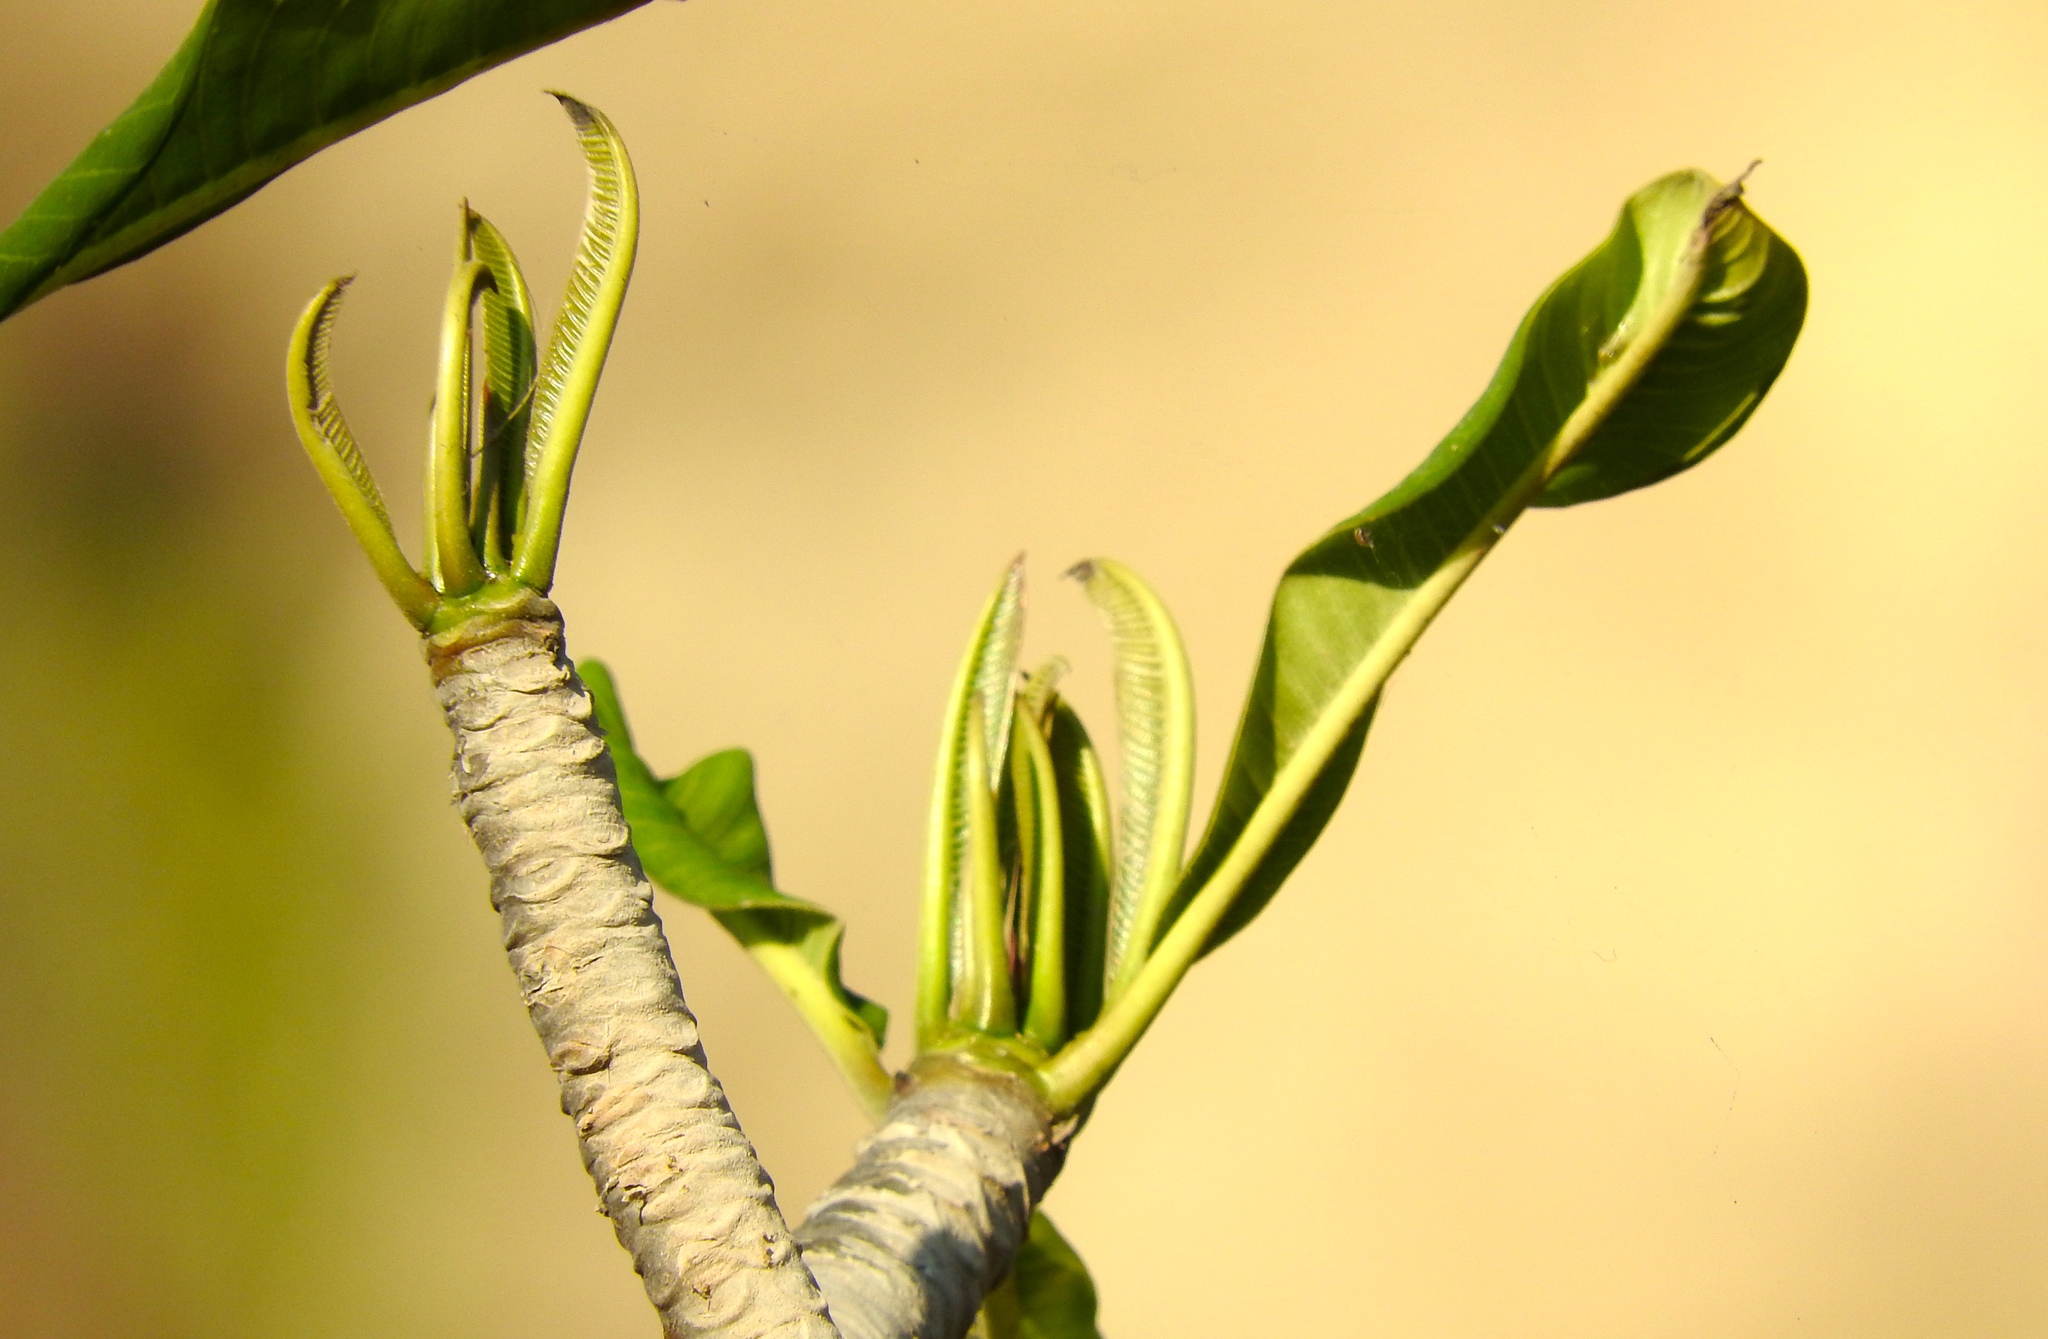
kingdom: Plantae
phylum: Tracheophyta
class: Magnoliopsida
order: Gentianales
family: Apocynaceae
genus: Plumeria
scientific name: Plumeria rubra
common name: Pagoda-tree
